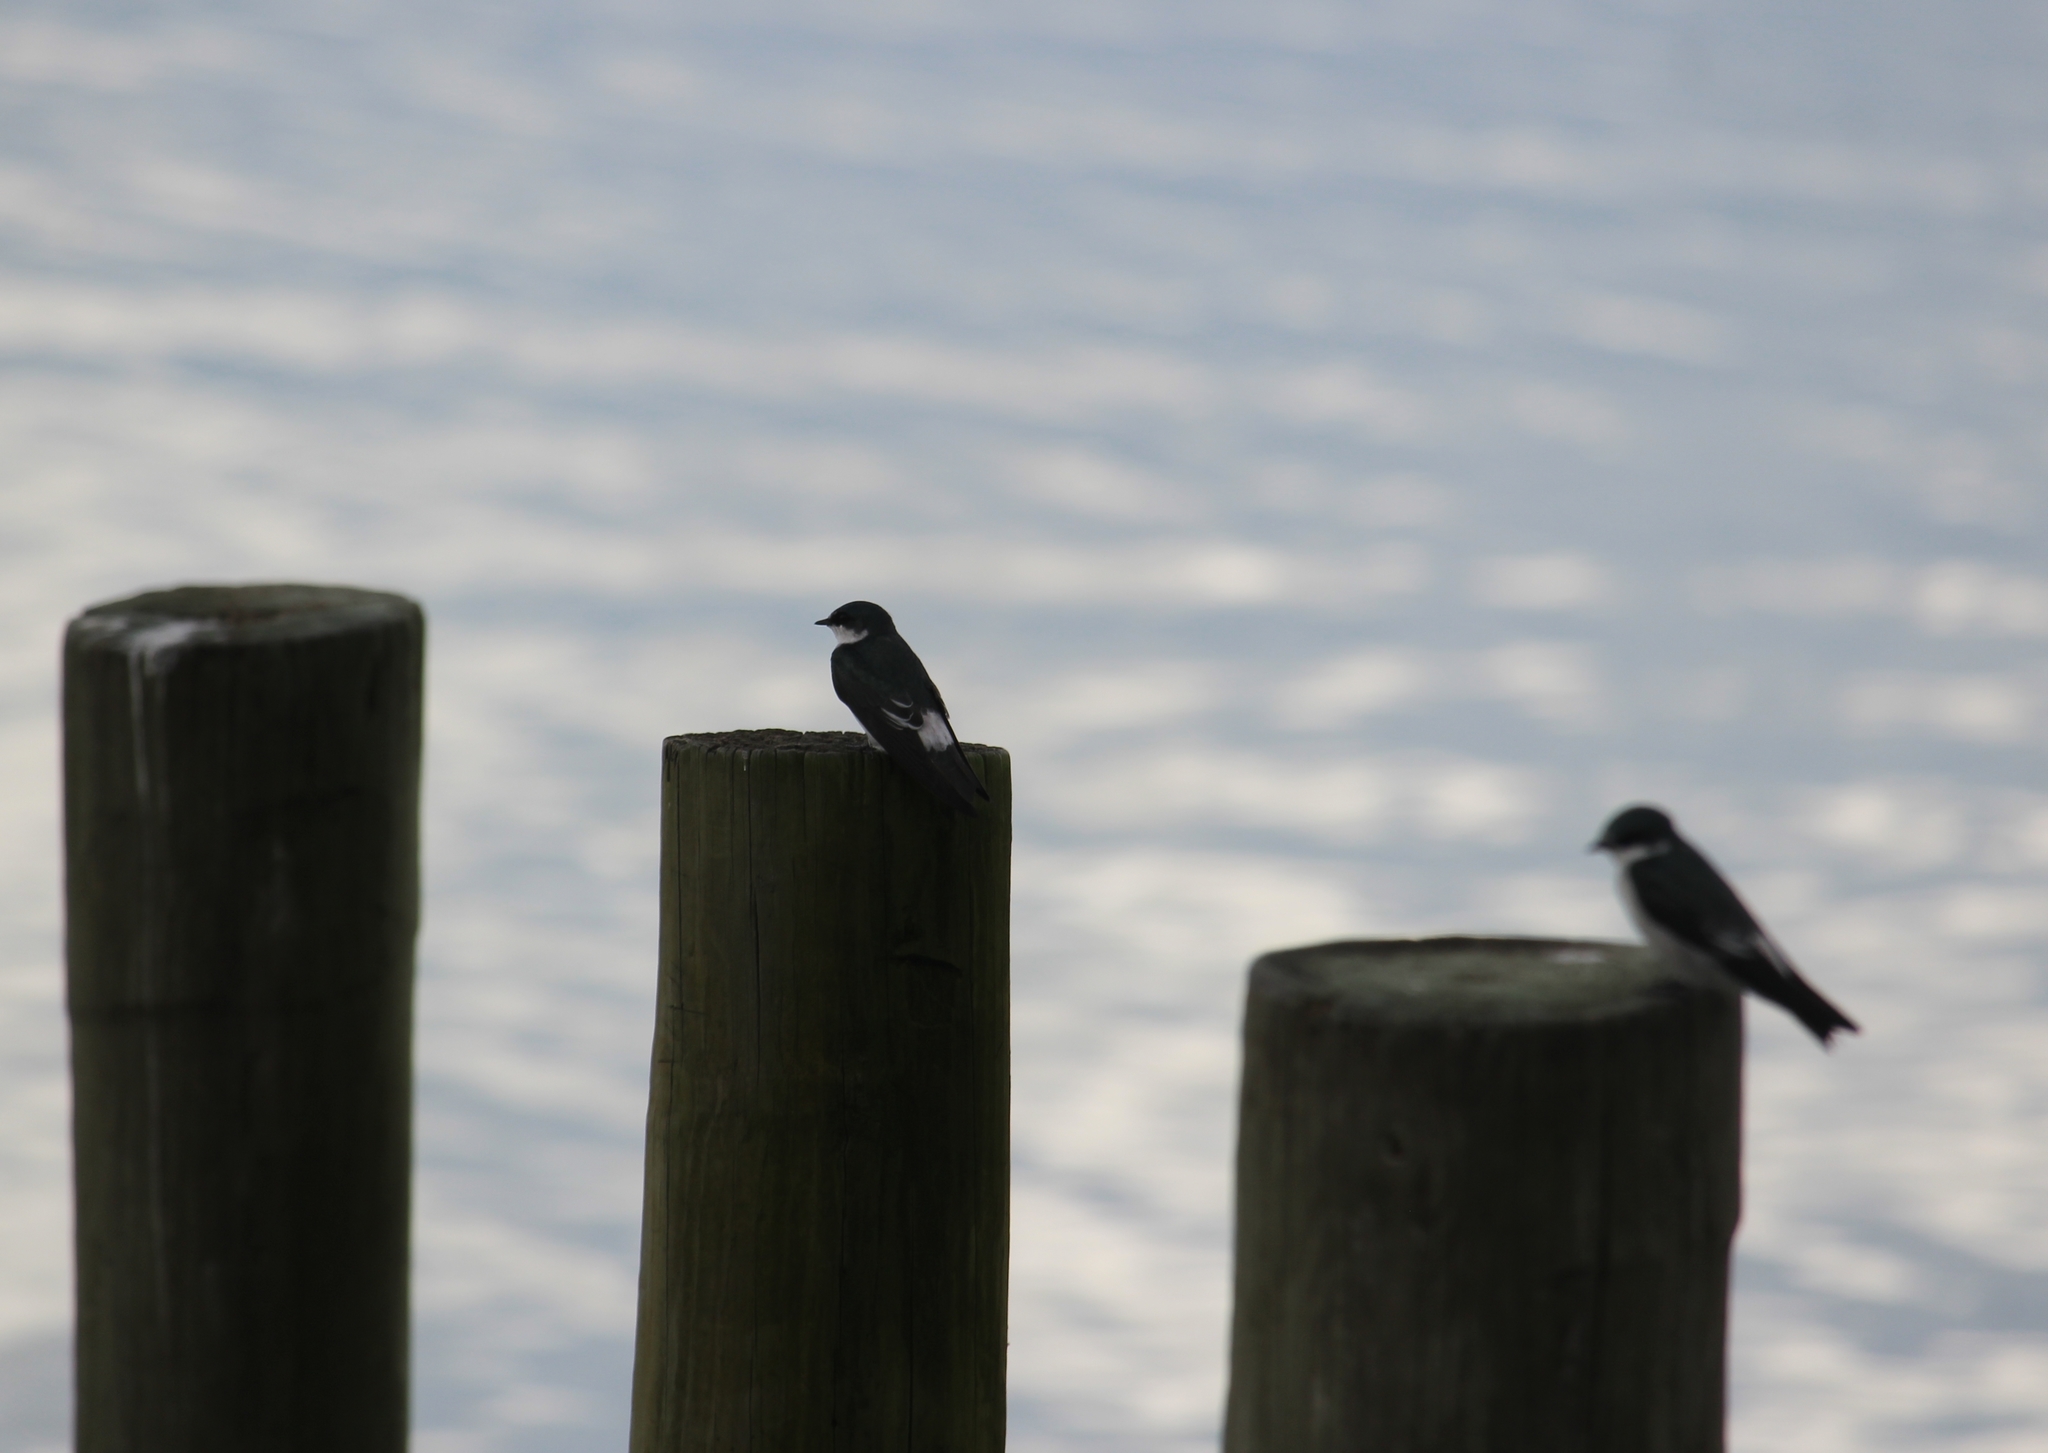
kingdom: Animalia
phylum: Chordata
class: Aves
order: Passeriformes
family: Hirundinidae
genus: Tachycineta
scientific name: Tachycineta albilinea
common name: Mangrove swallow
